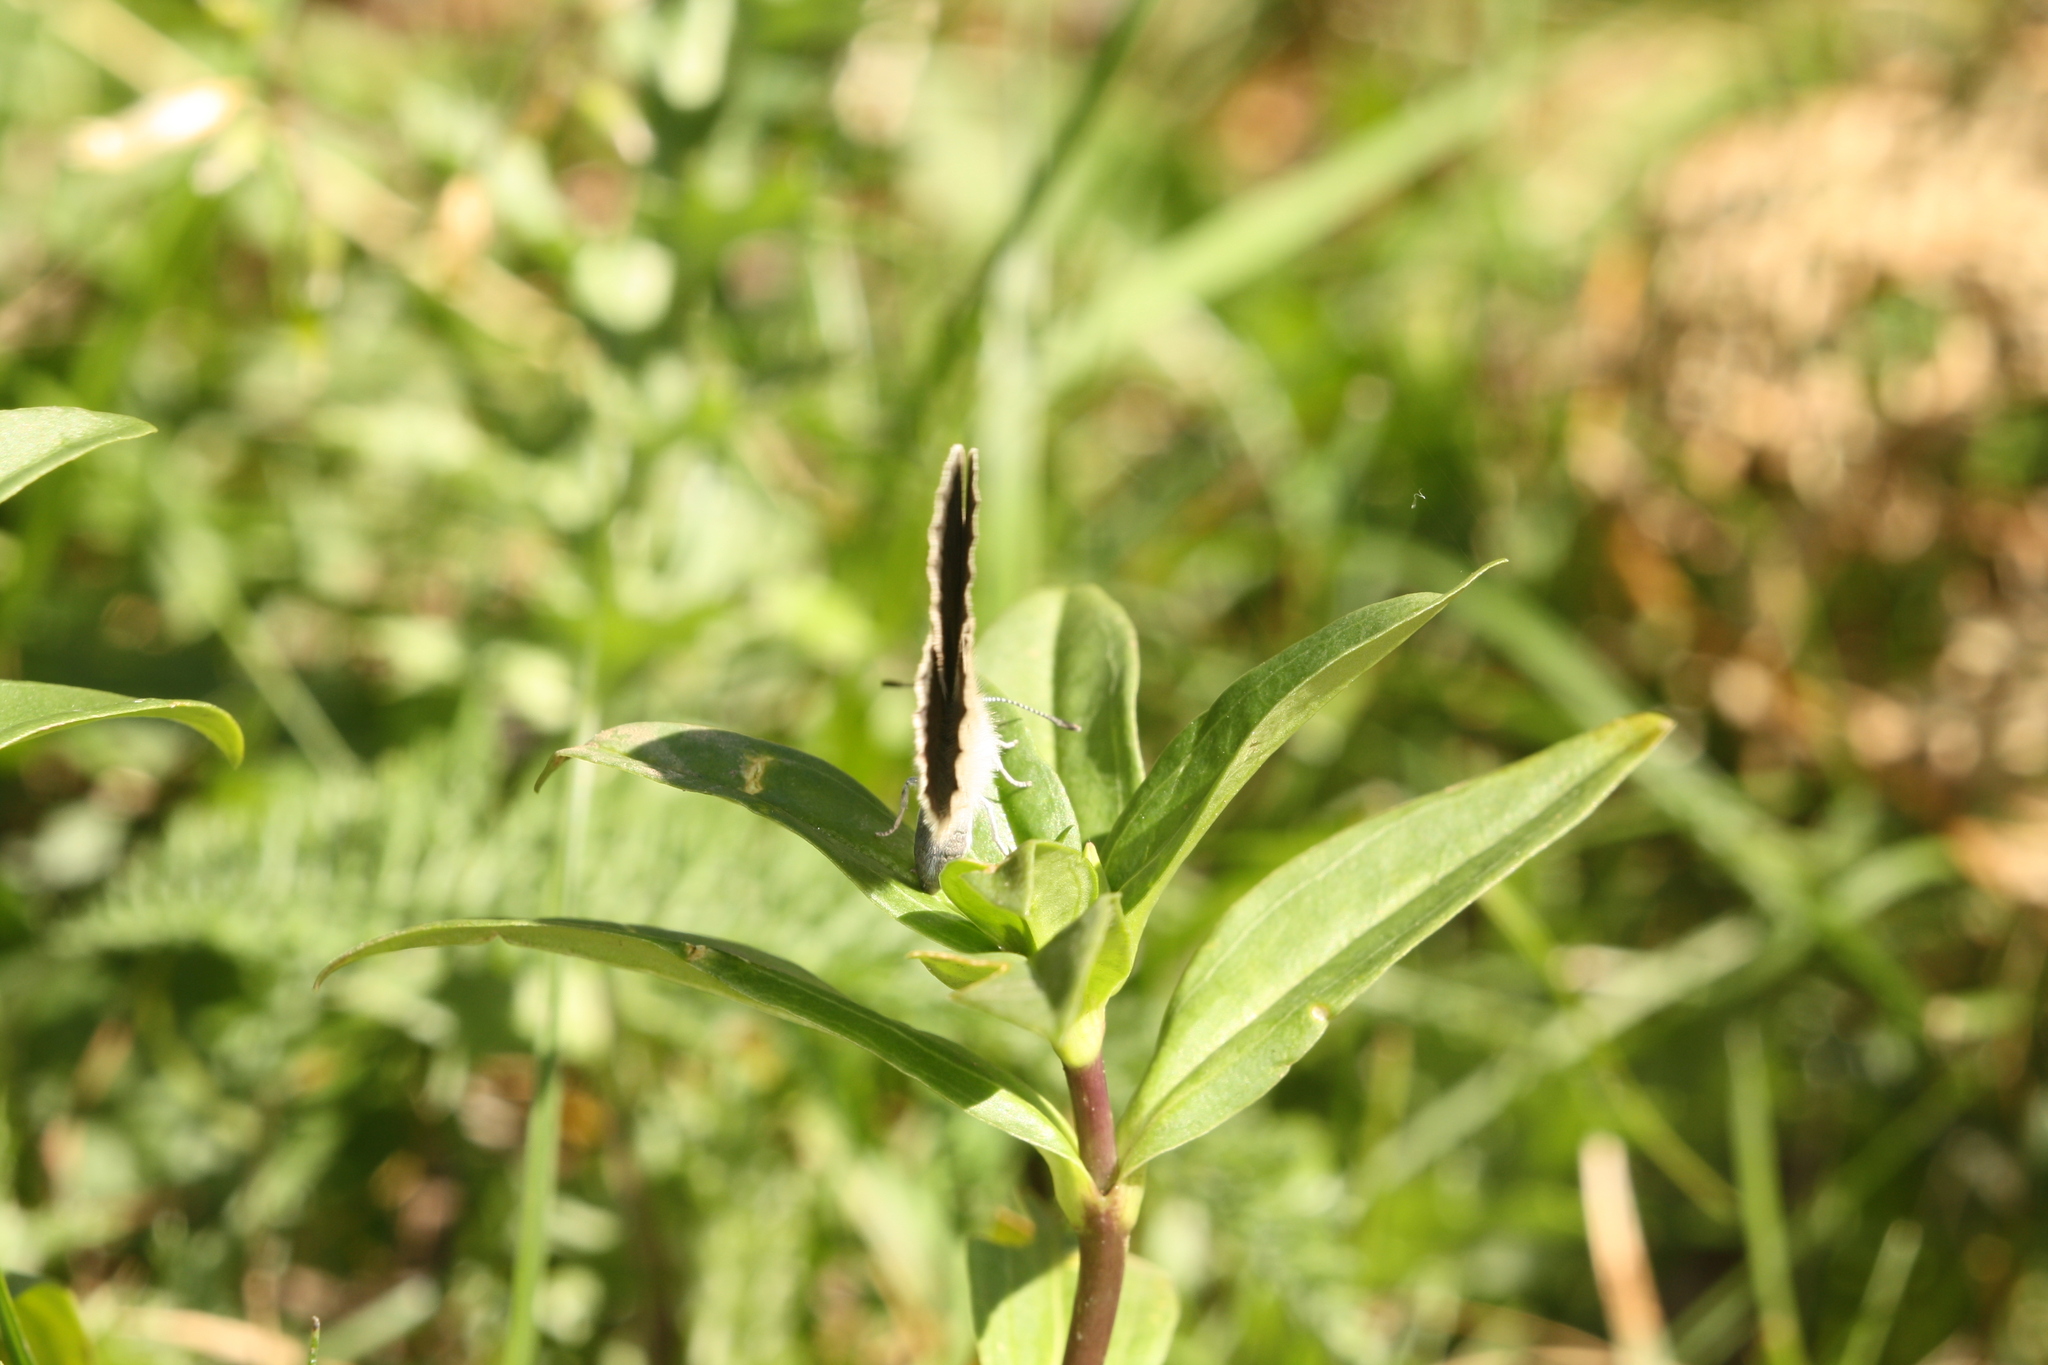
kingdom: Animalia
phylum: Arthropoda
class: Insecta
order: Lepidoptera
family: Lycaenidae
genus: Maculinea
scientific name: Maculinea alcon
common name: Alcon blue
